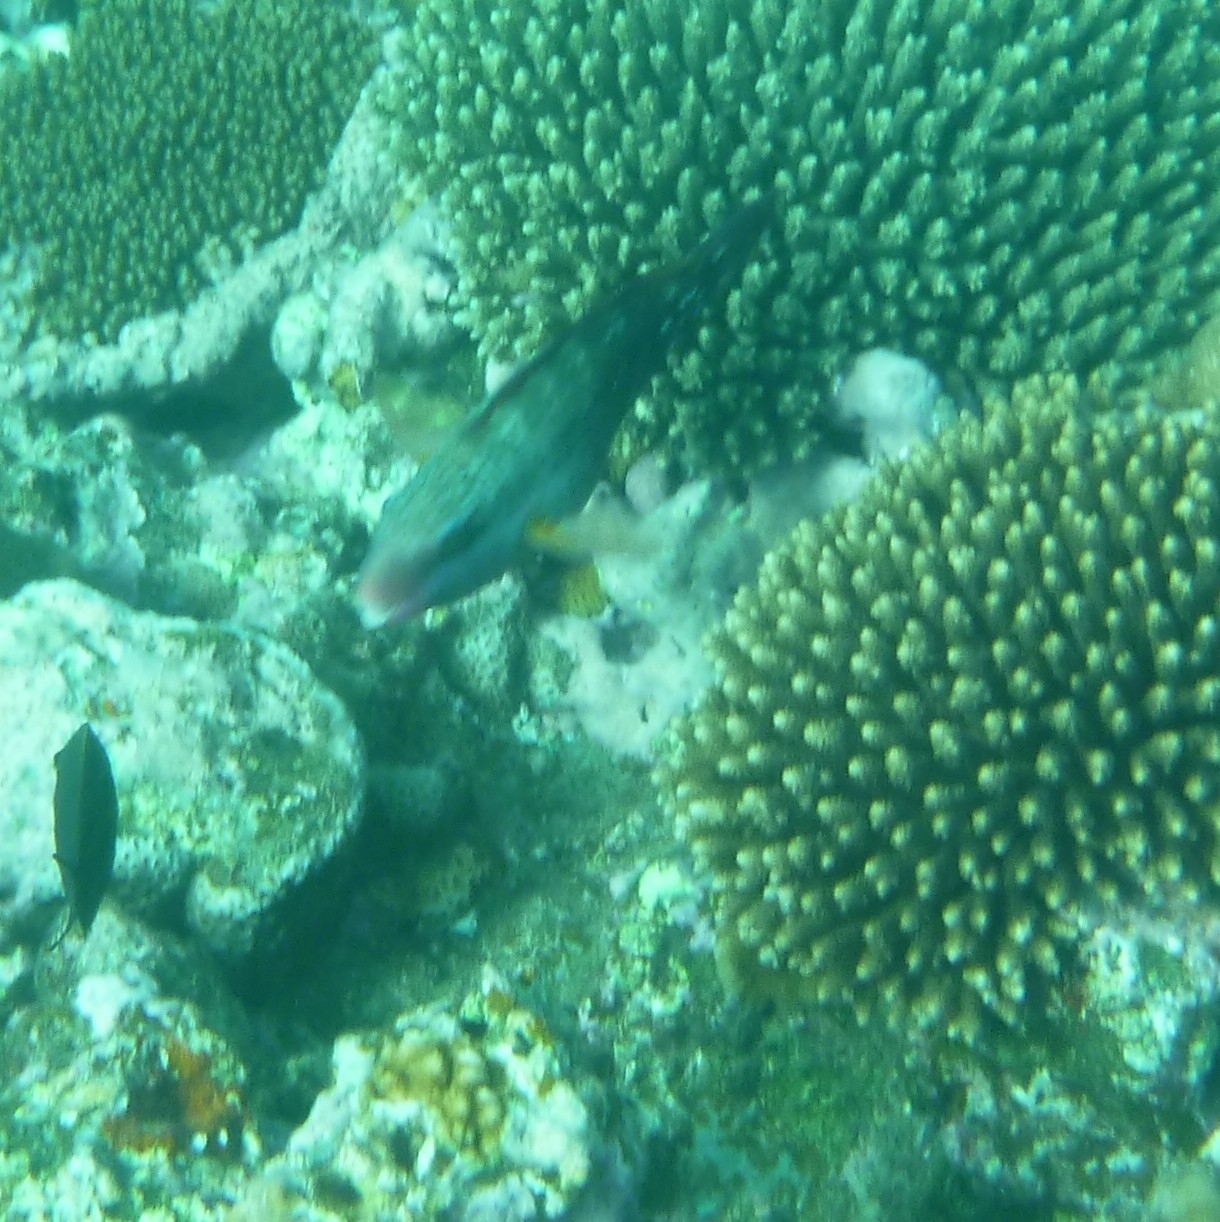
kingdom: Animalia
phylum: Chordata
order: Perciformes
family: Scaridae
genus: Chlorurus
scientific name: Chlorurus spilurus
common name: Bullethead parrotfish
